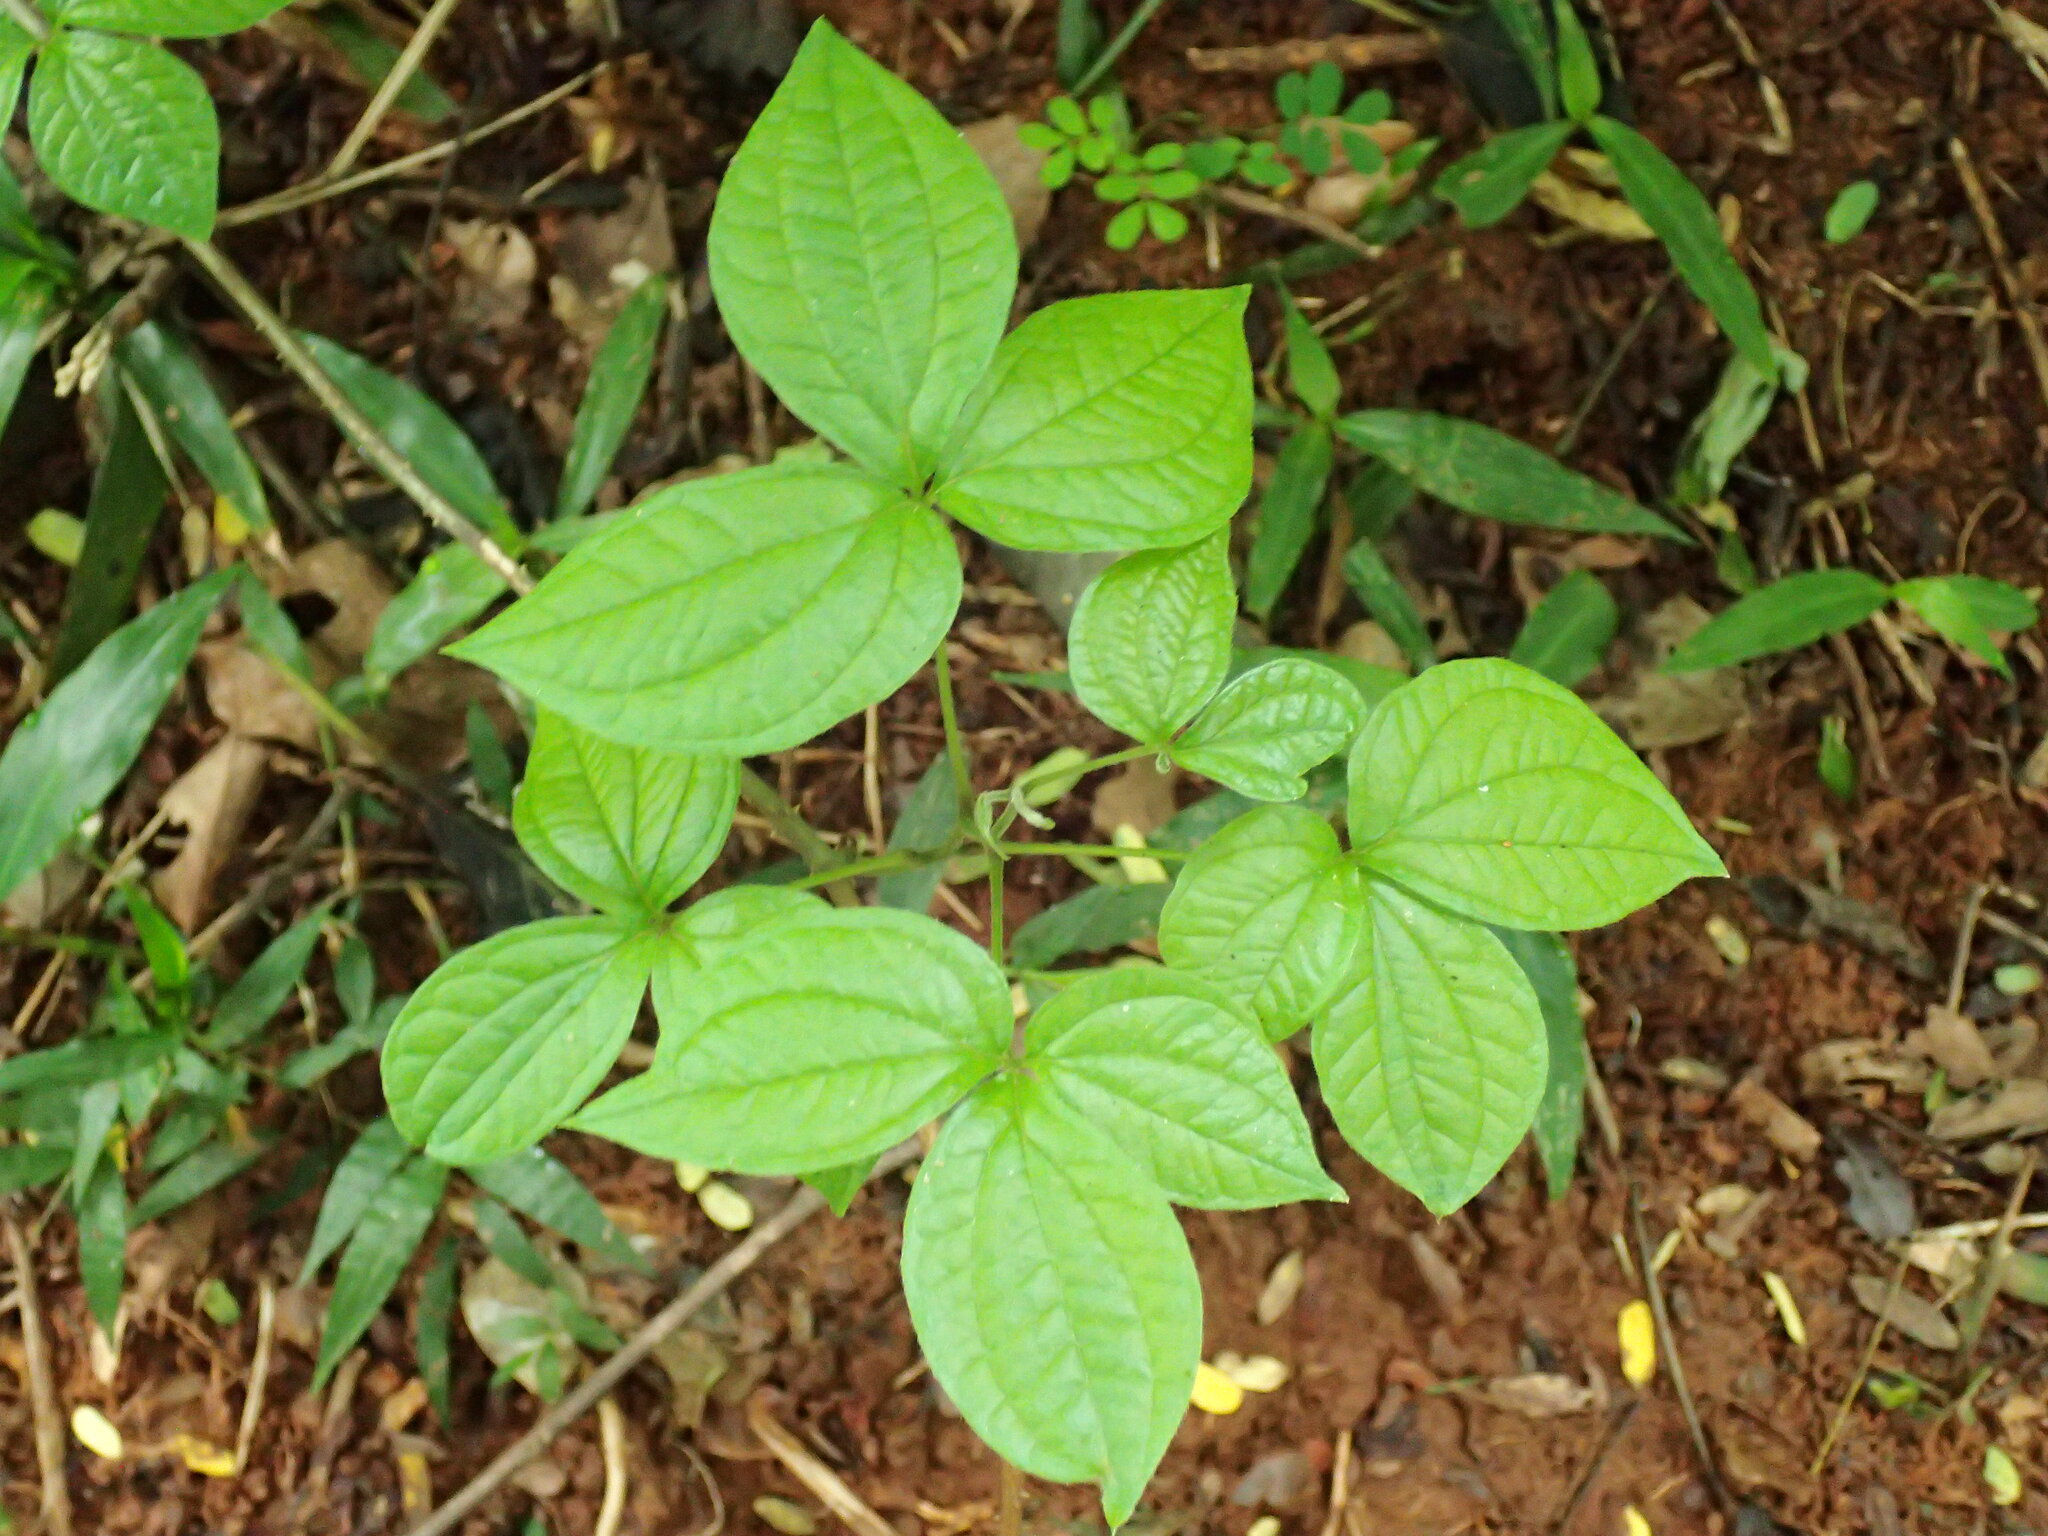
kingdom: Plantae
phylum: Tracheophyta
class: Liliopsida
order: Dioscoreales
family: Dioscoreaceae
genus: Dioscorea
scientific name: Dioscorea dregeana
